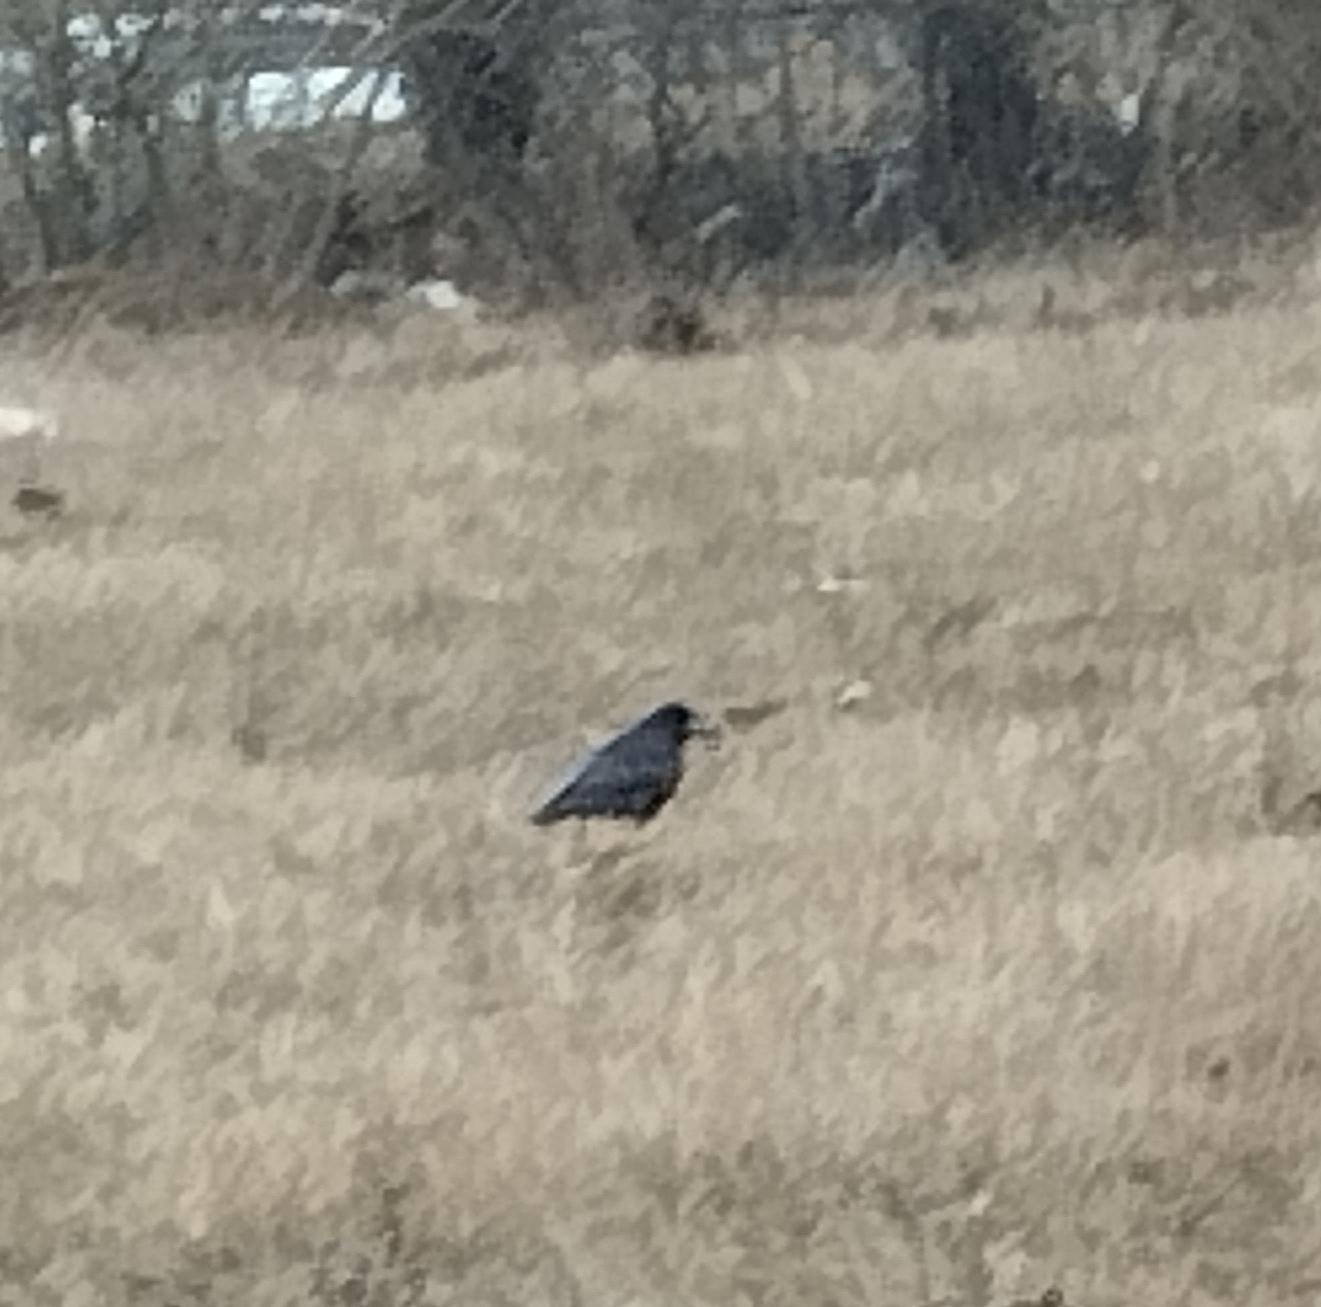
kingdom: Animalia
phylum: Chordata
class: Aves
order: Passeriformes
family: Corvidae
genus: Corvus
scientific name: Corvus frugilegus
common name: Rook
